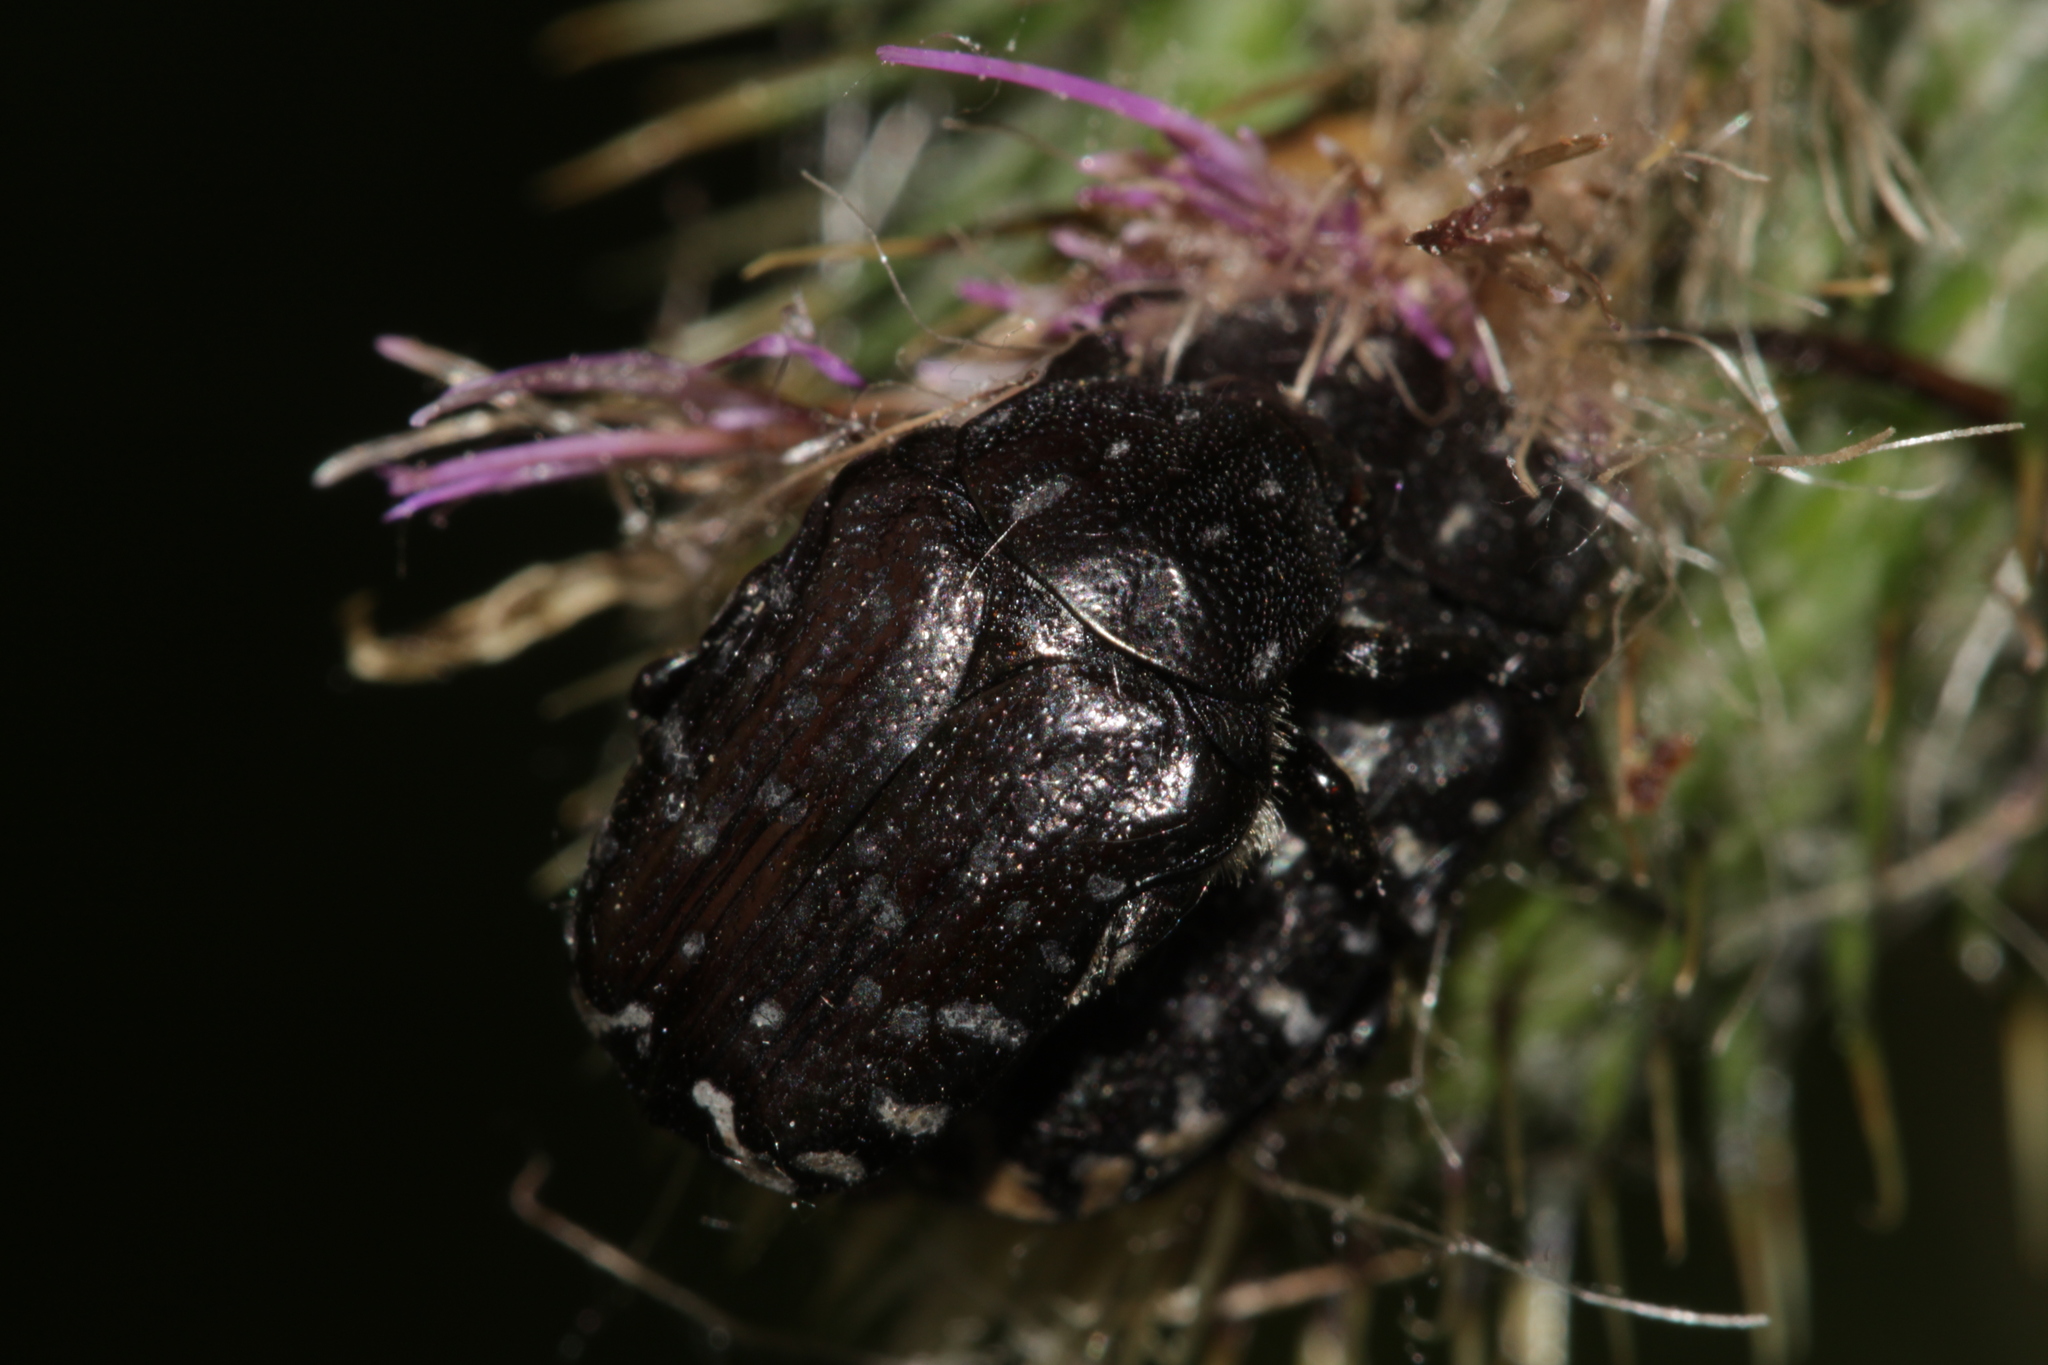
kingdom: Animalia
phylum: Arthropoda
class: Insecta
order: Coleoptera
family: Scarabaeidae
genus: Oxythyrea
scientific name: Oxythyrea funesta
